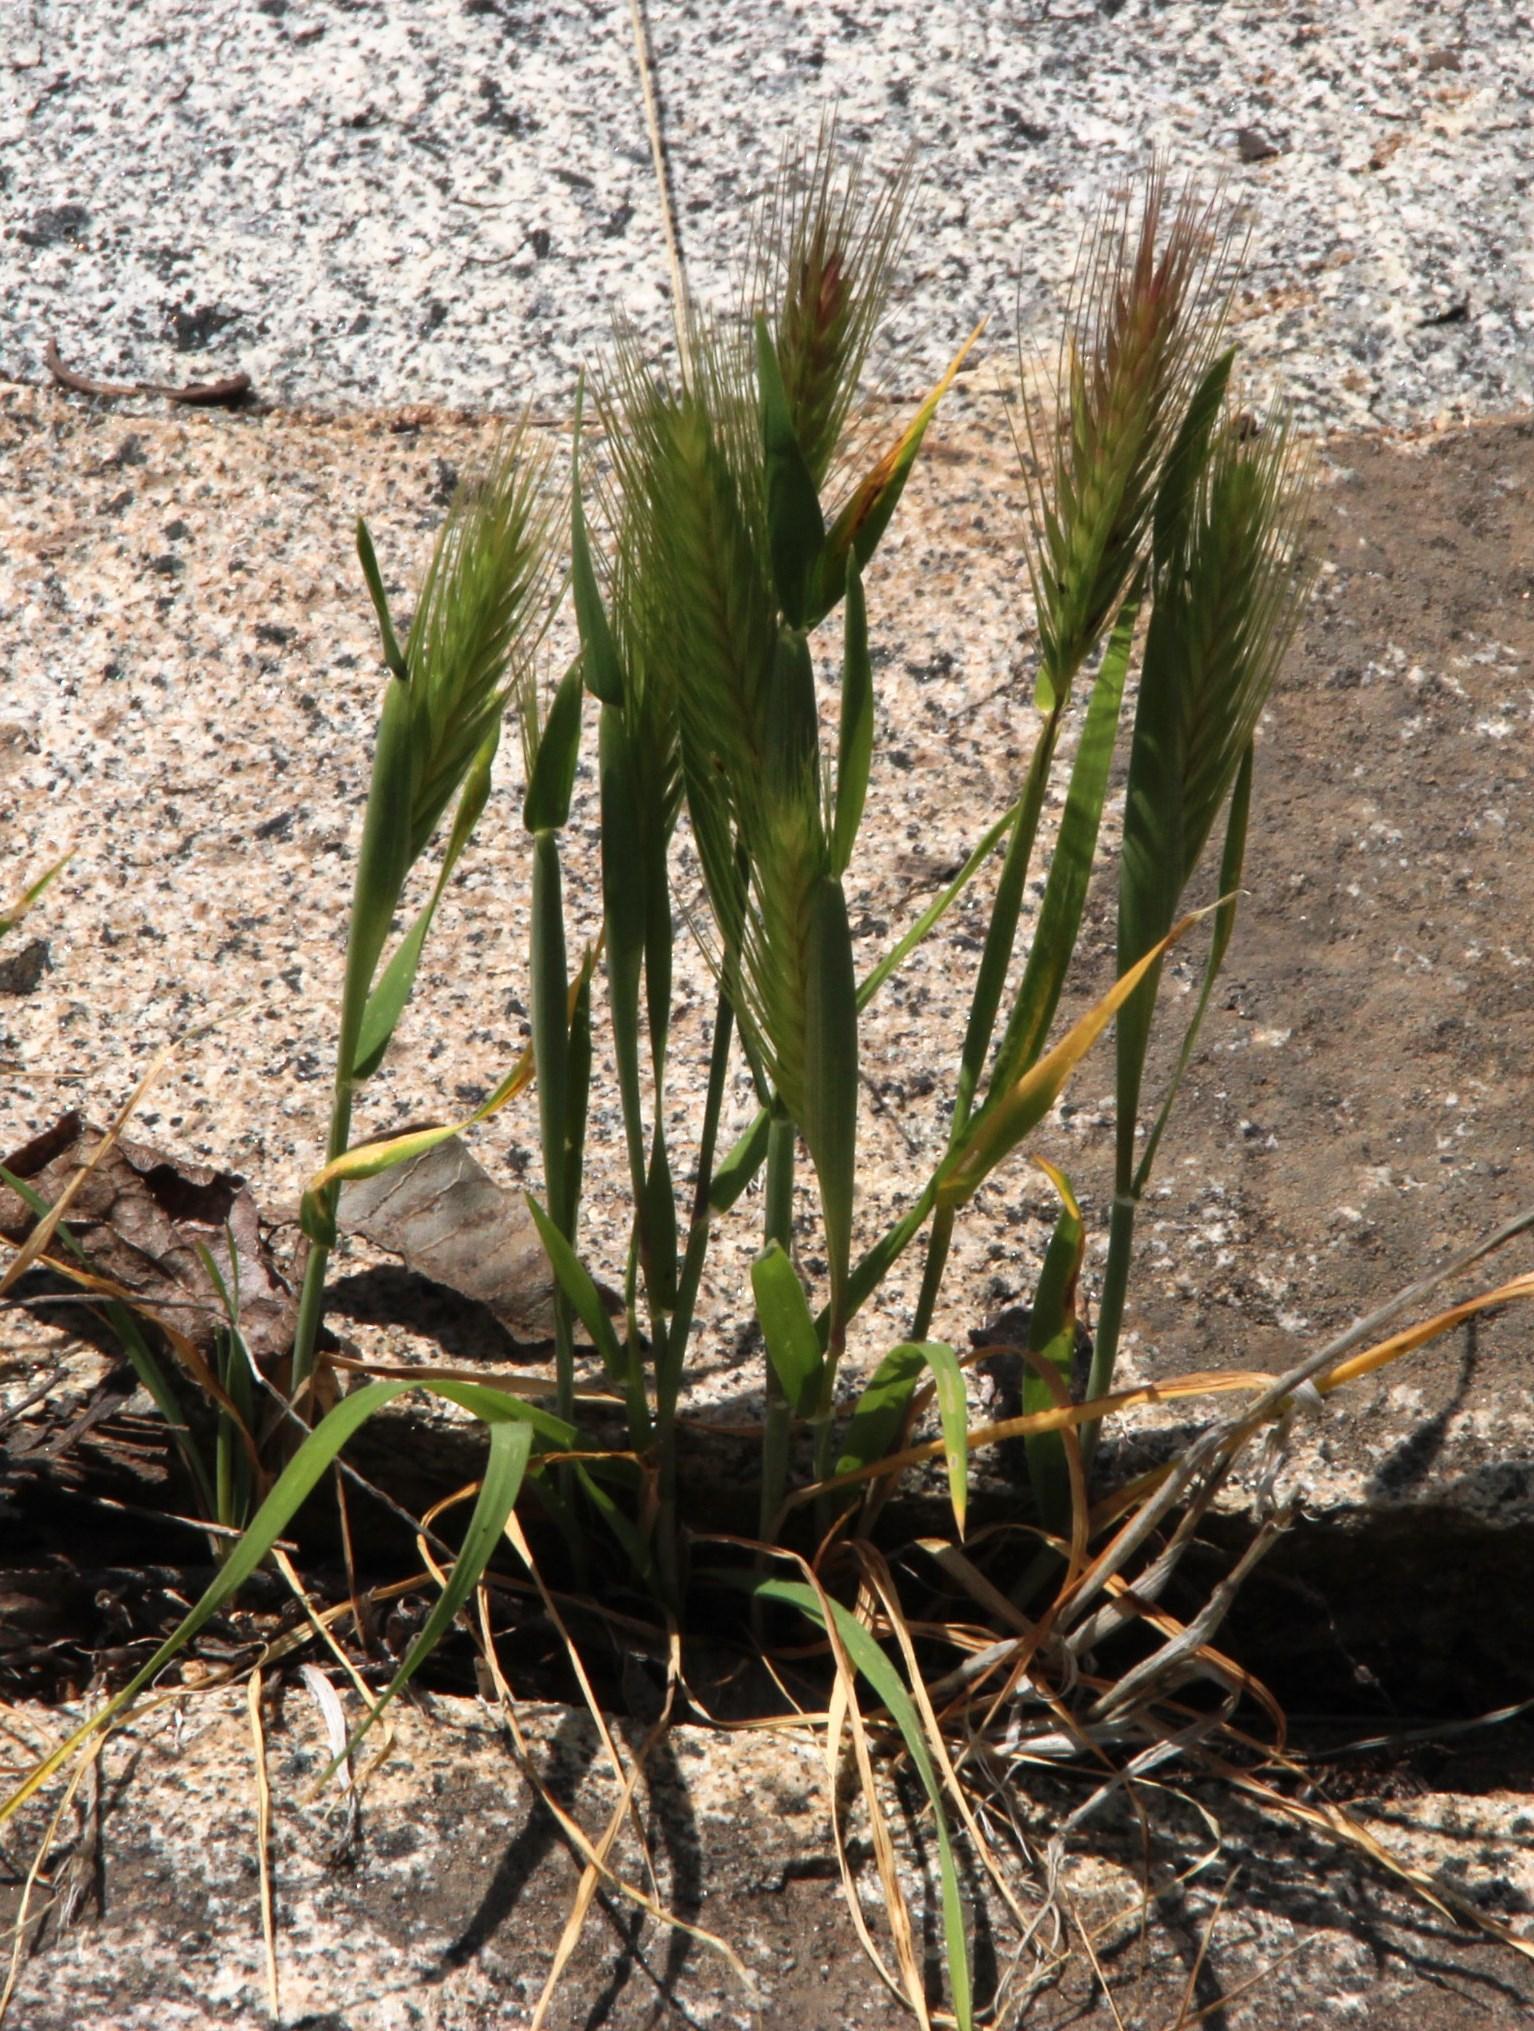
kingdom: Plantae
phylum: Tracheophyta
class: Liliopsida
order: Poales
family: Poaceae
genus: Hordeum
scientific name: Hordeum
